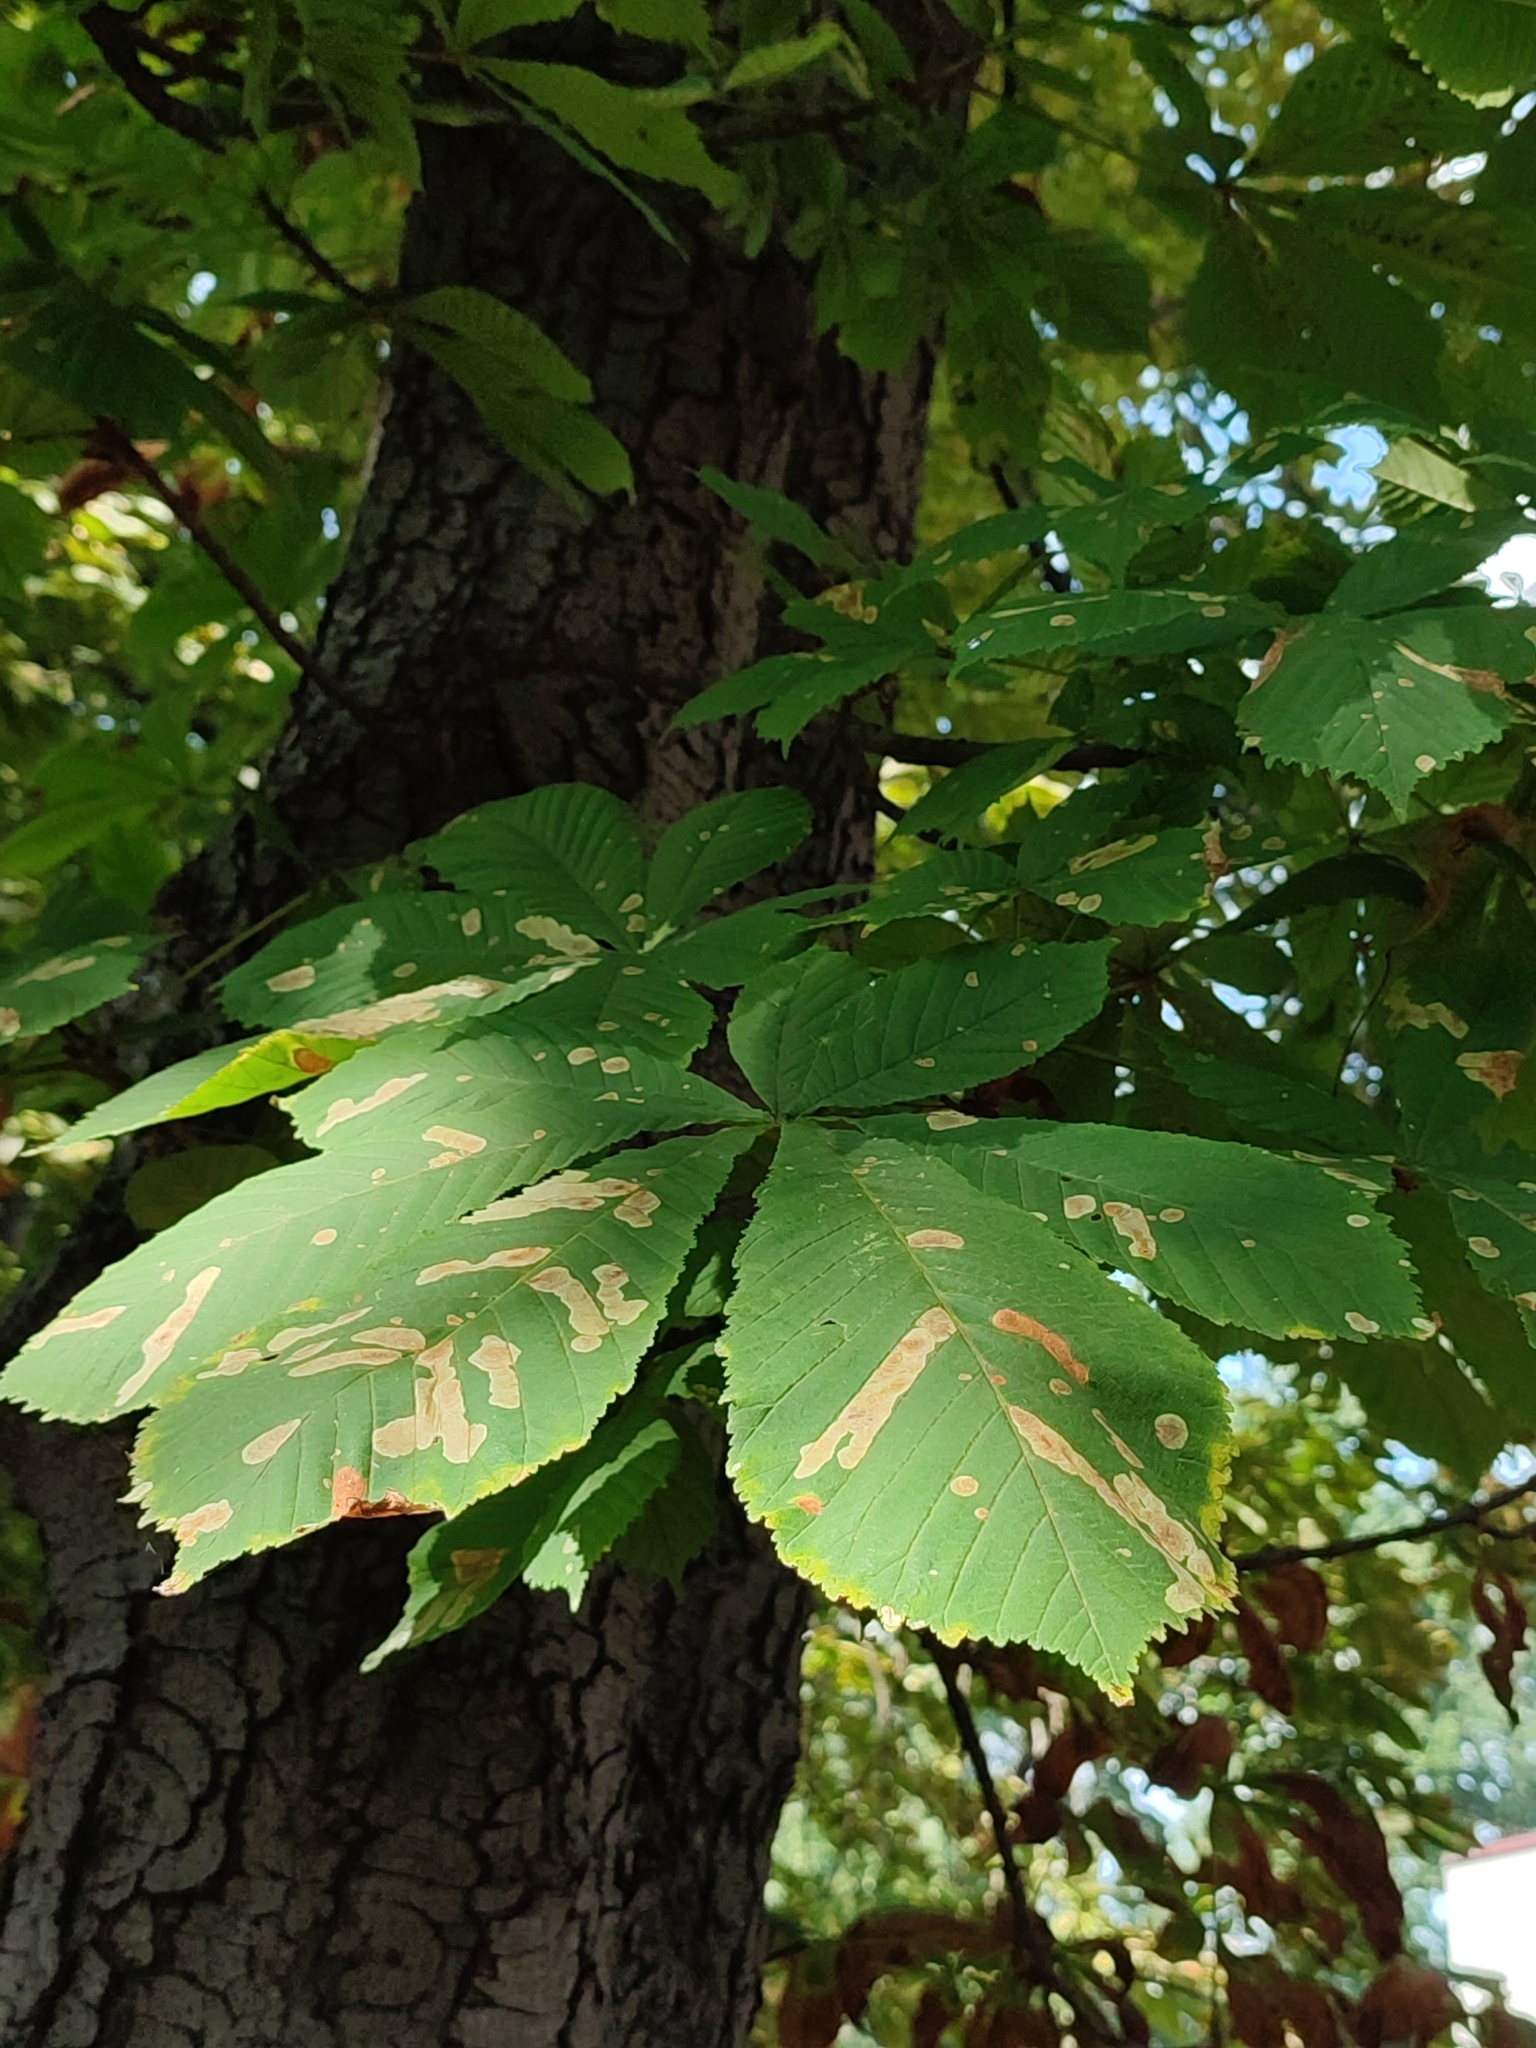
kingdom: Animalia
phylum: Arthropoda
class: Insecta
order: Lepidoptera
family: Gracillariidae
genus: Cameraria
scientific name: Cameraria ohridella
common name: Horse-chestnut leaf-miner
